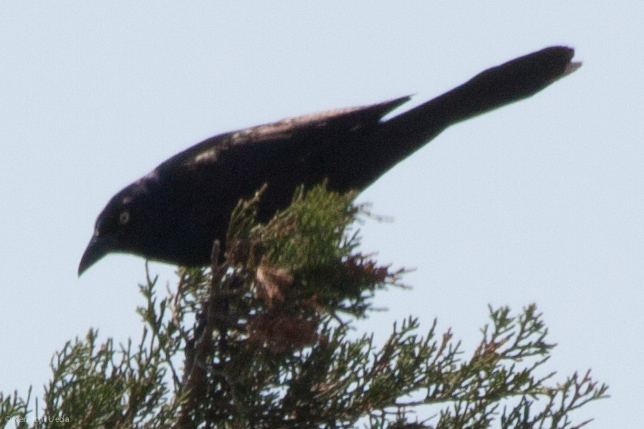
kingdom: Animalia
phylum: Chordata
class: Aves
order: Passeriformes
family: Icteridae
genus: Quiscalus
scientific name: Quiscalus quiscula
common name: Common grackle
